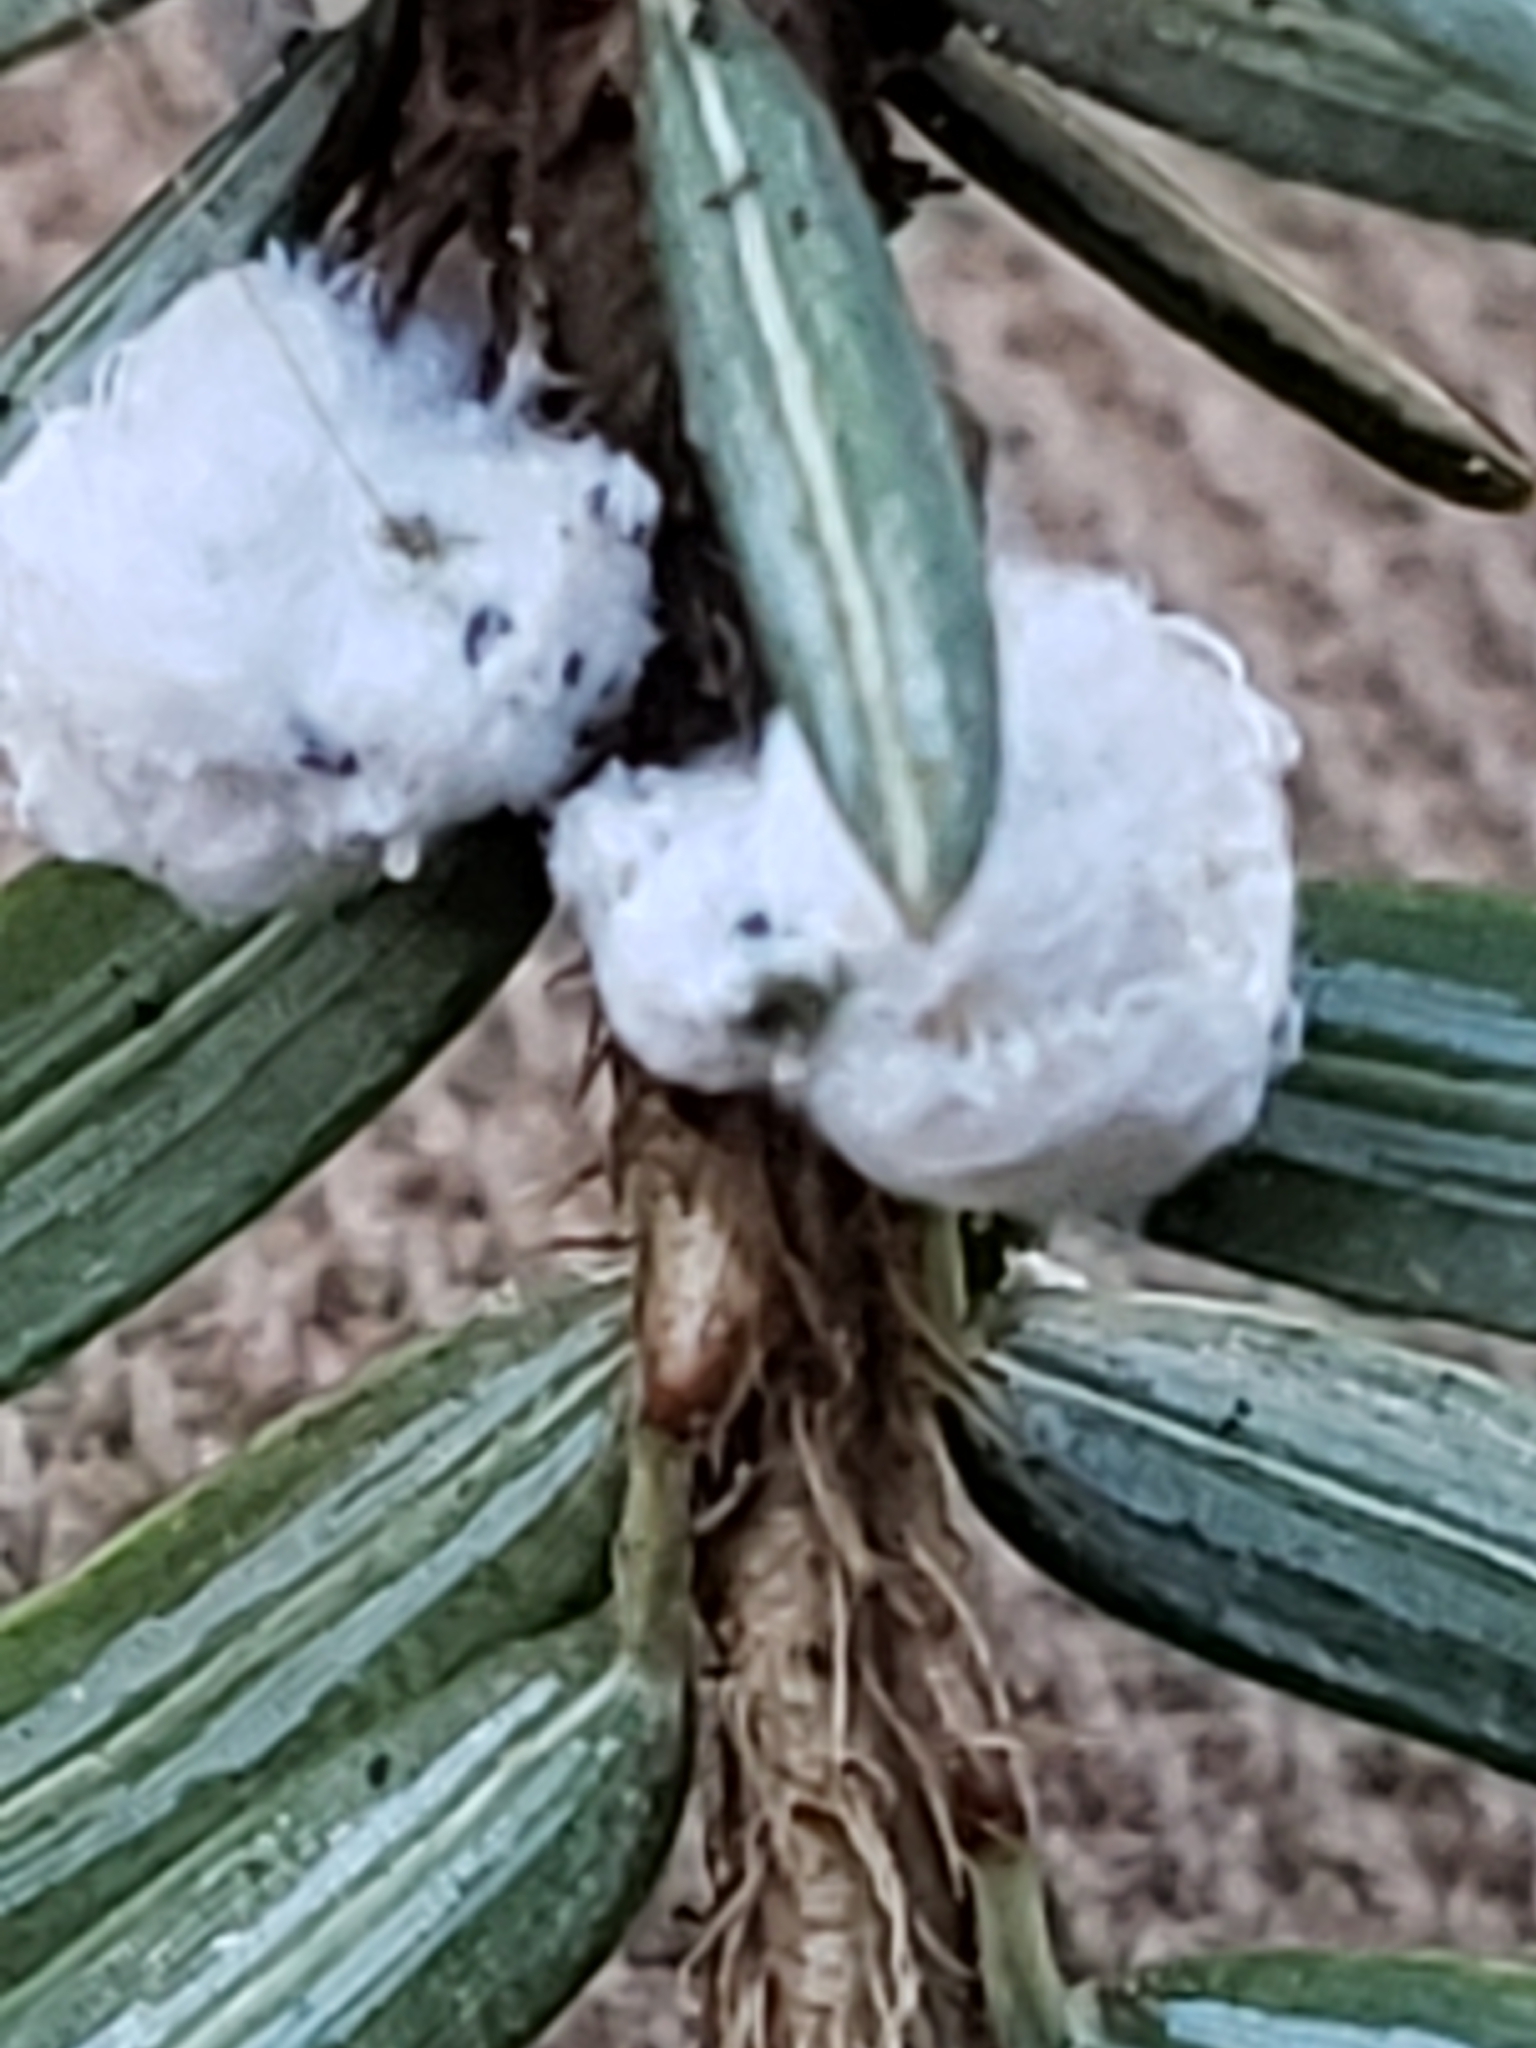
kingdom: Plantae
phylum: Tracheophyta
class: Pinopsida
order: Pinales
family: Pinaceae
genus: Tsuga
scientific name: Tsuga canadensis
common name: Eastern hemlock
